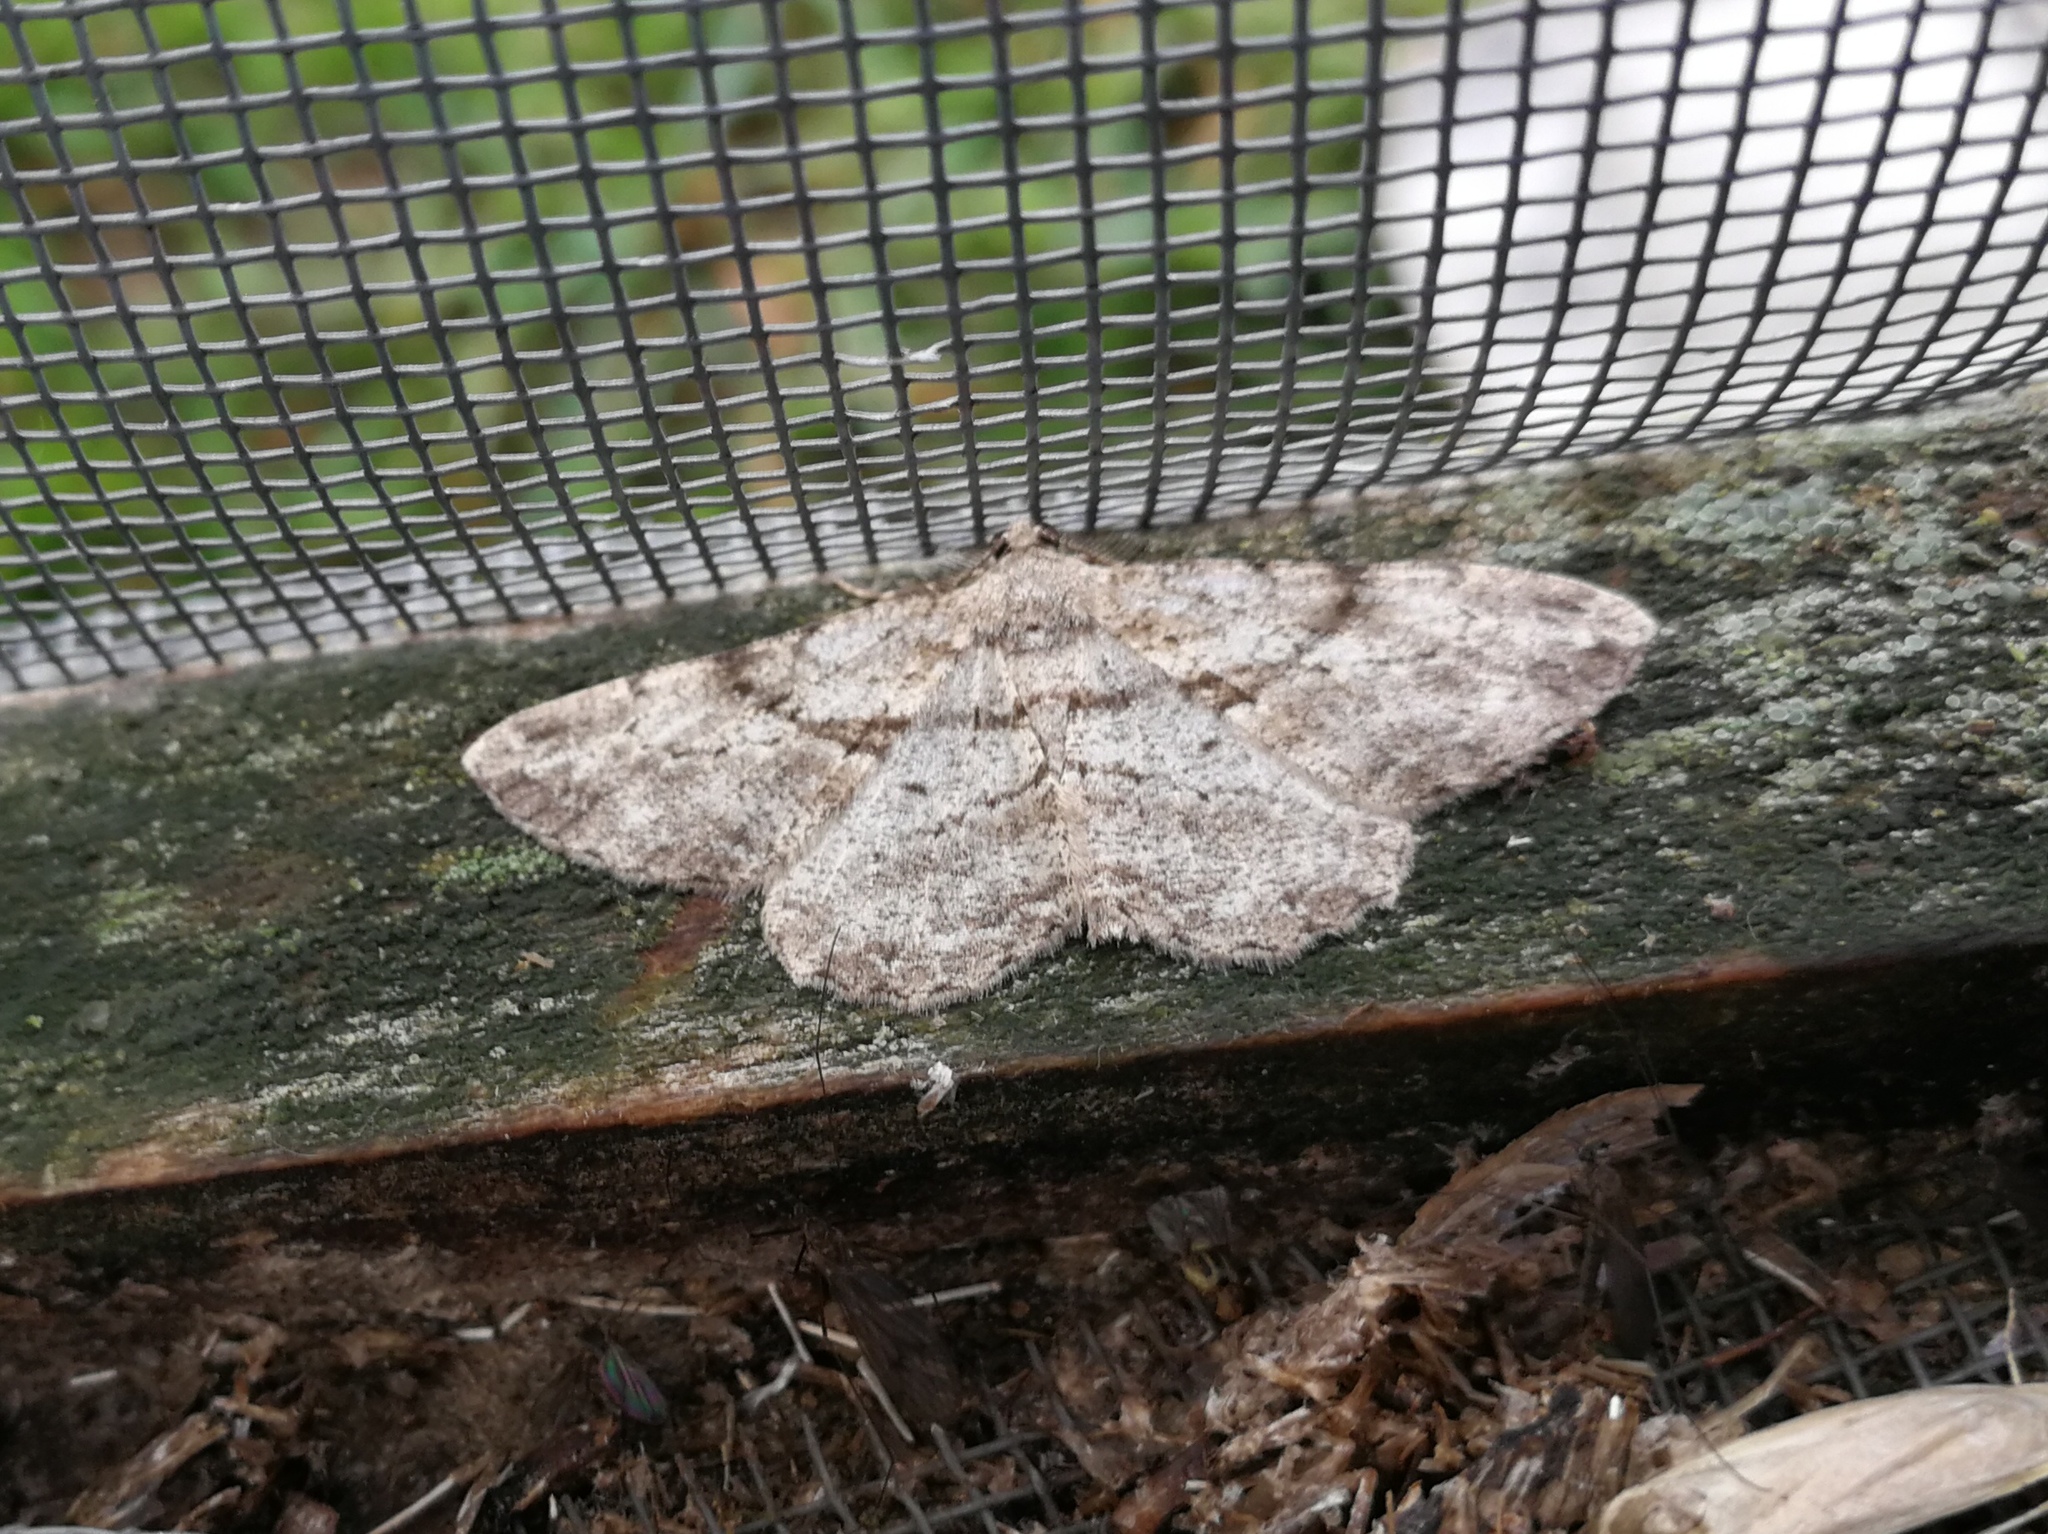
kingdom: Animalia
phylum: Arthropoda
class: Insecta
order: Lepidoptera
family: Geometridae
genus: Peribatodes
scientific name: Peribatodes rhomboidaria
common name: Willow beauty
